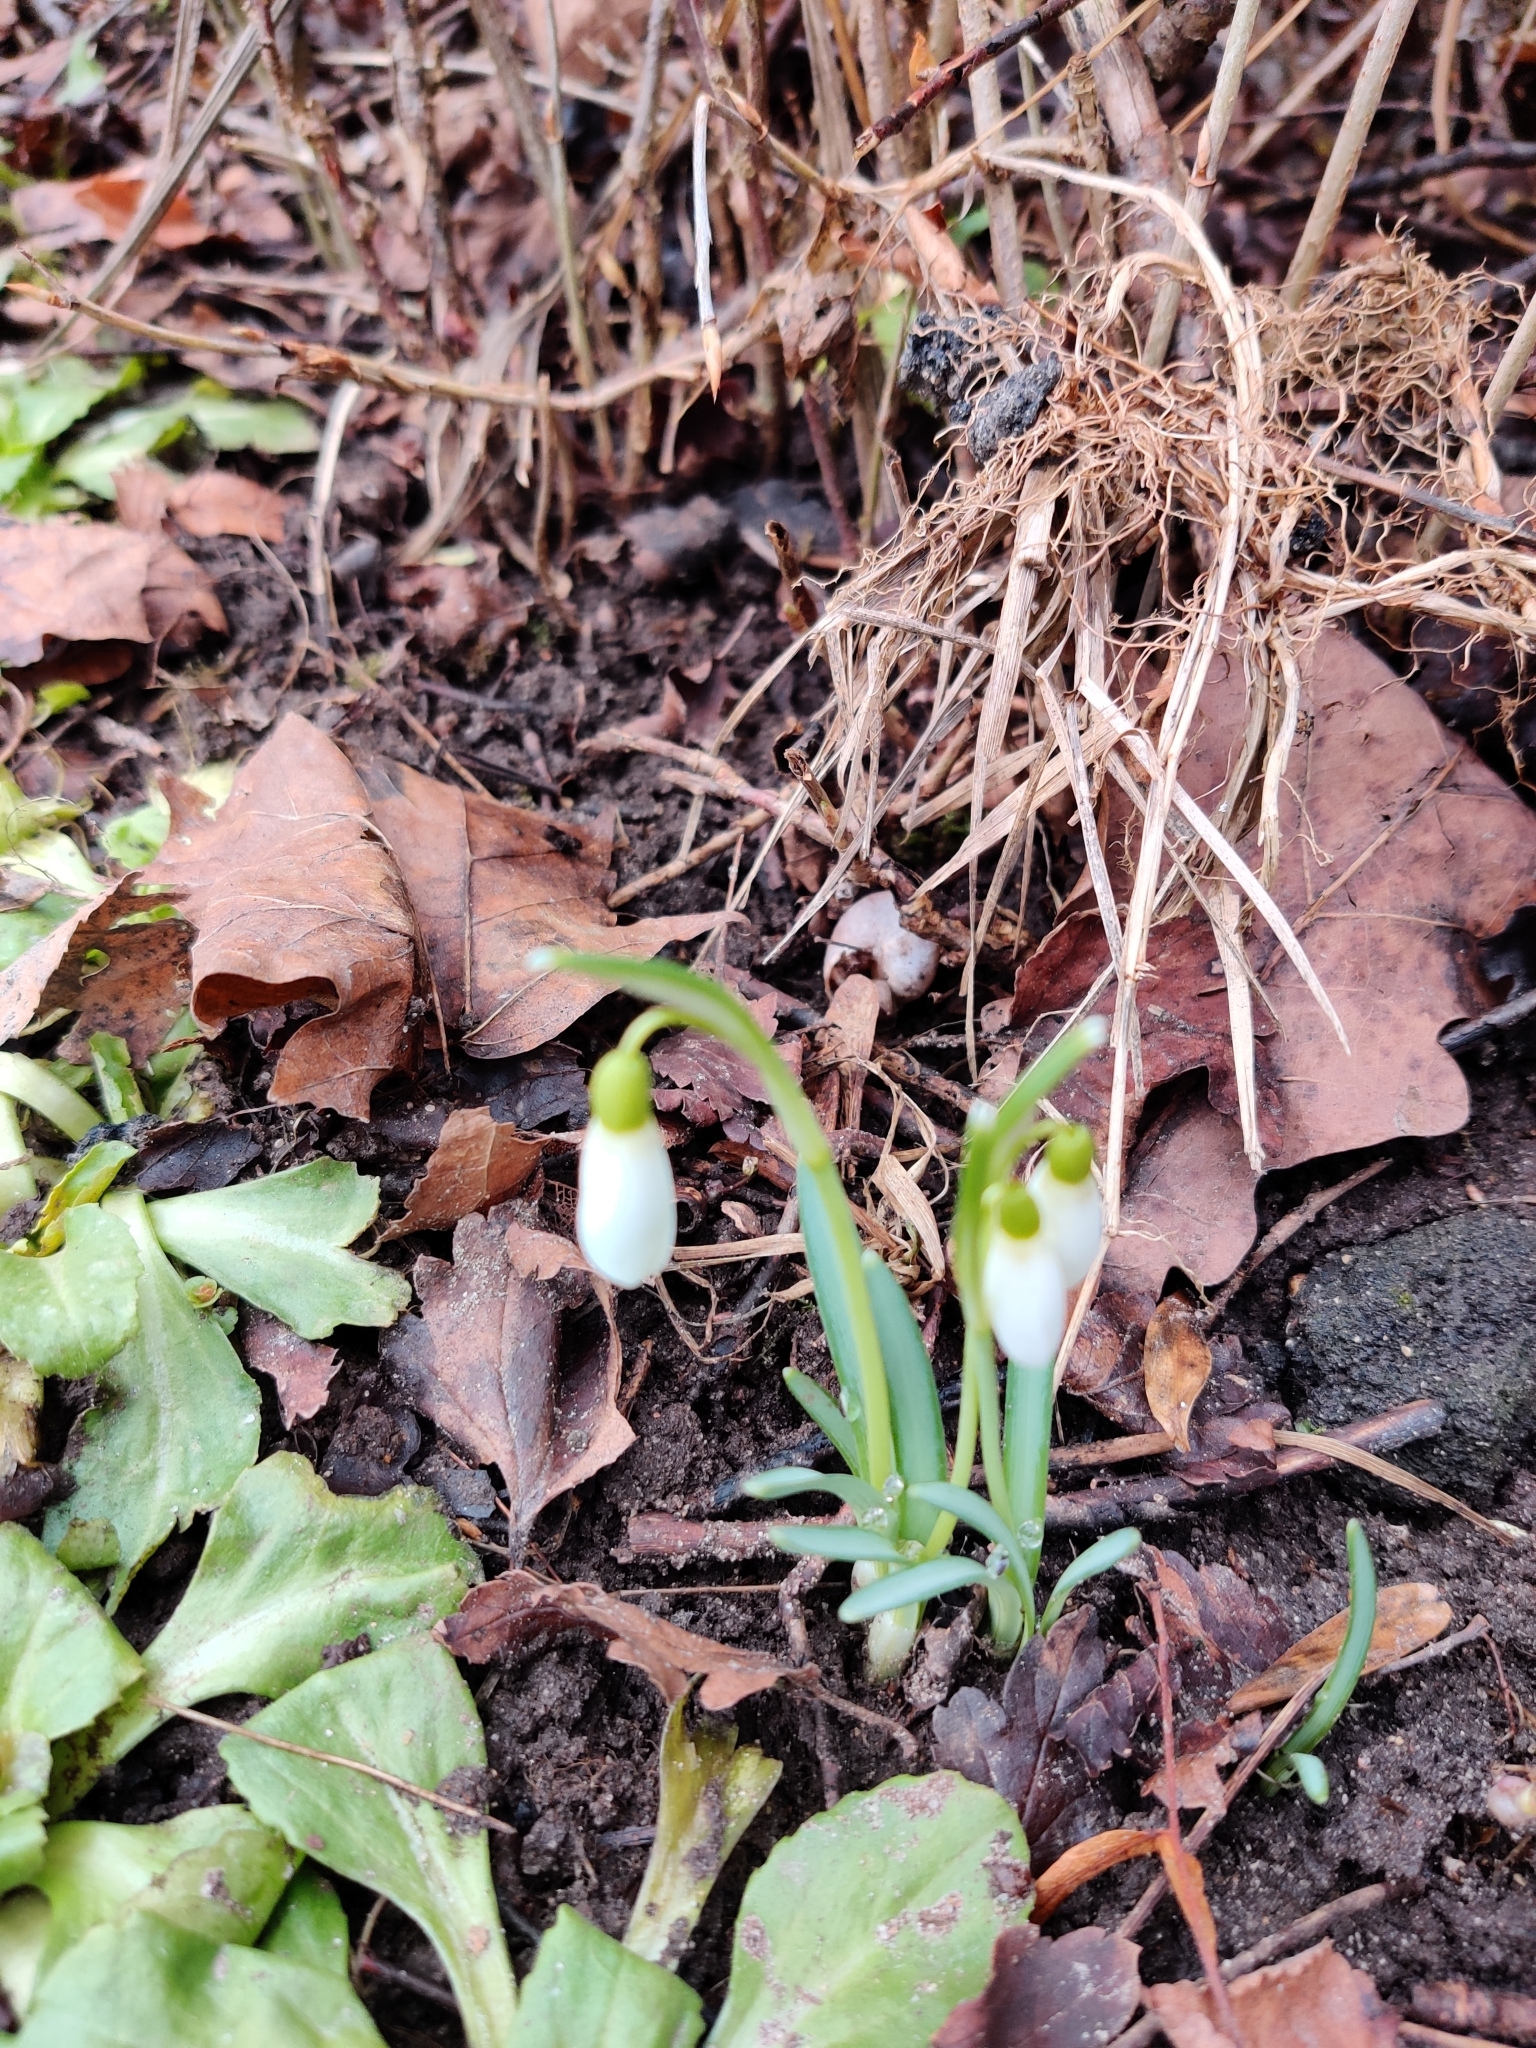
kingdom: Plantae
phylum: Tracheophyta
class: Liliopsida
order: Asparagales
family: Amaryllidaceae
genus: Galanthus
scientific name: Galanthus nivalis
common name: Snowdrop
